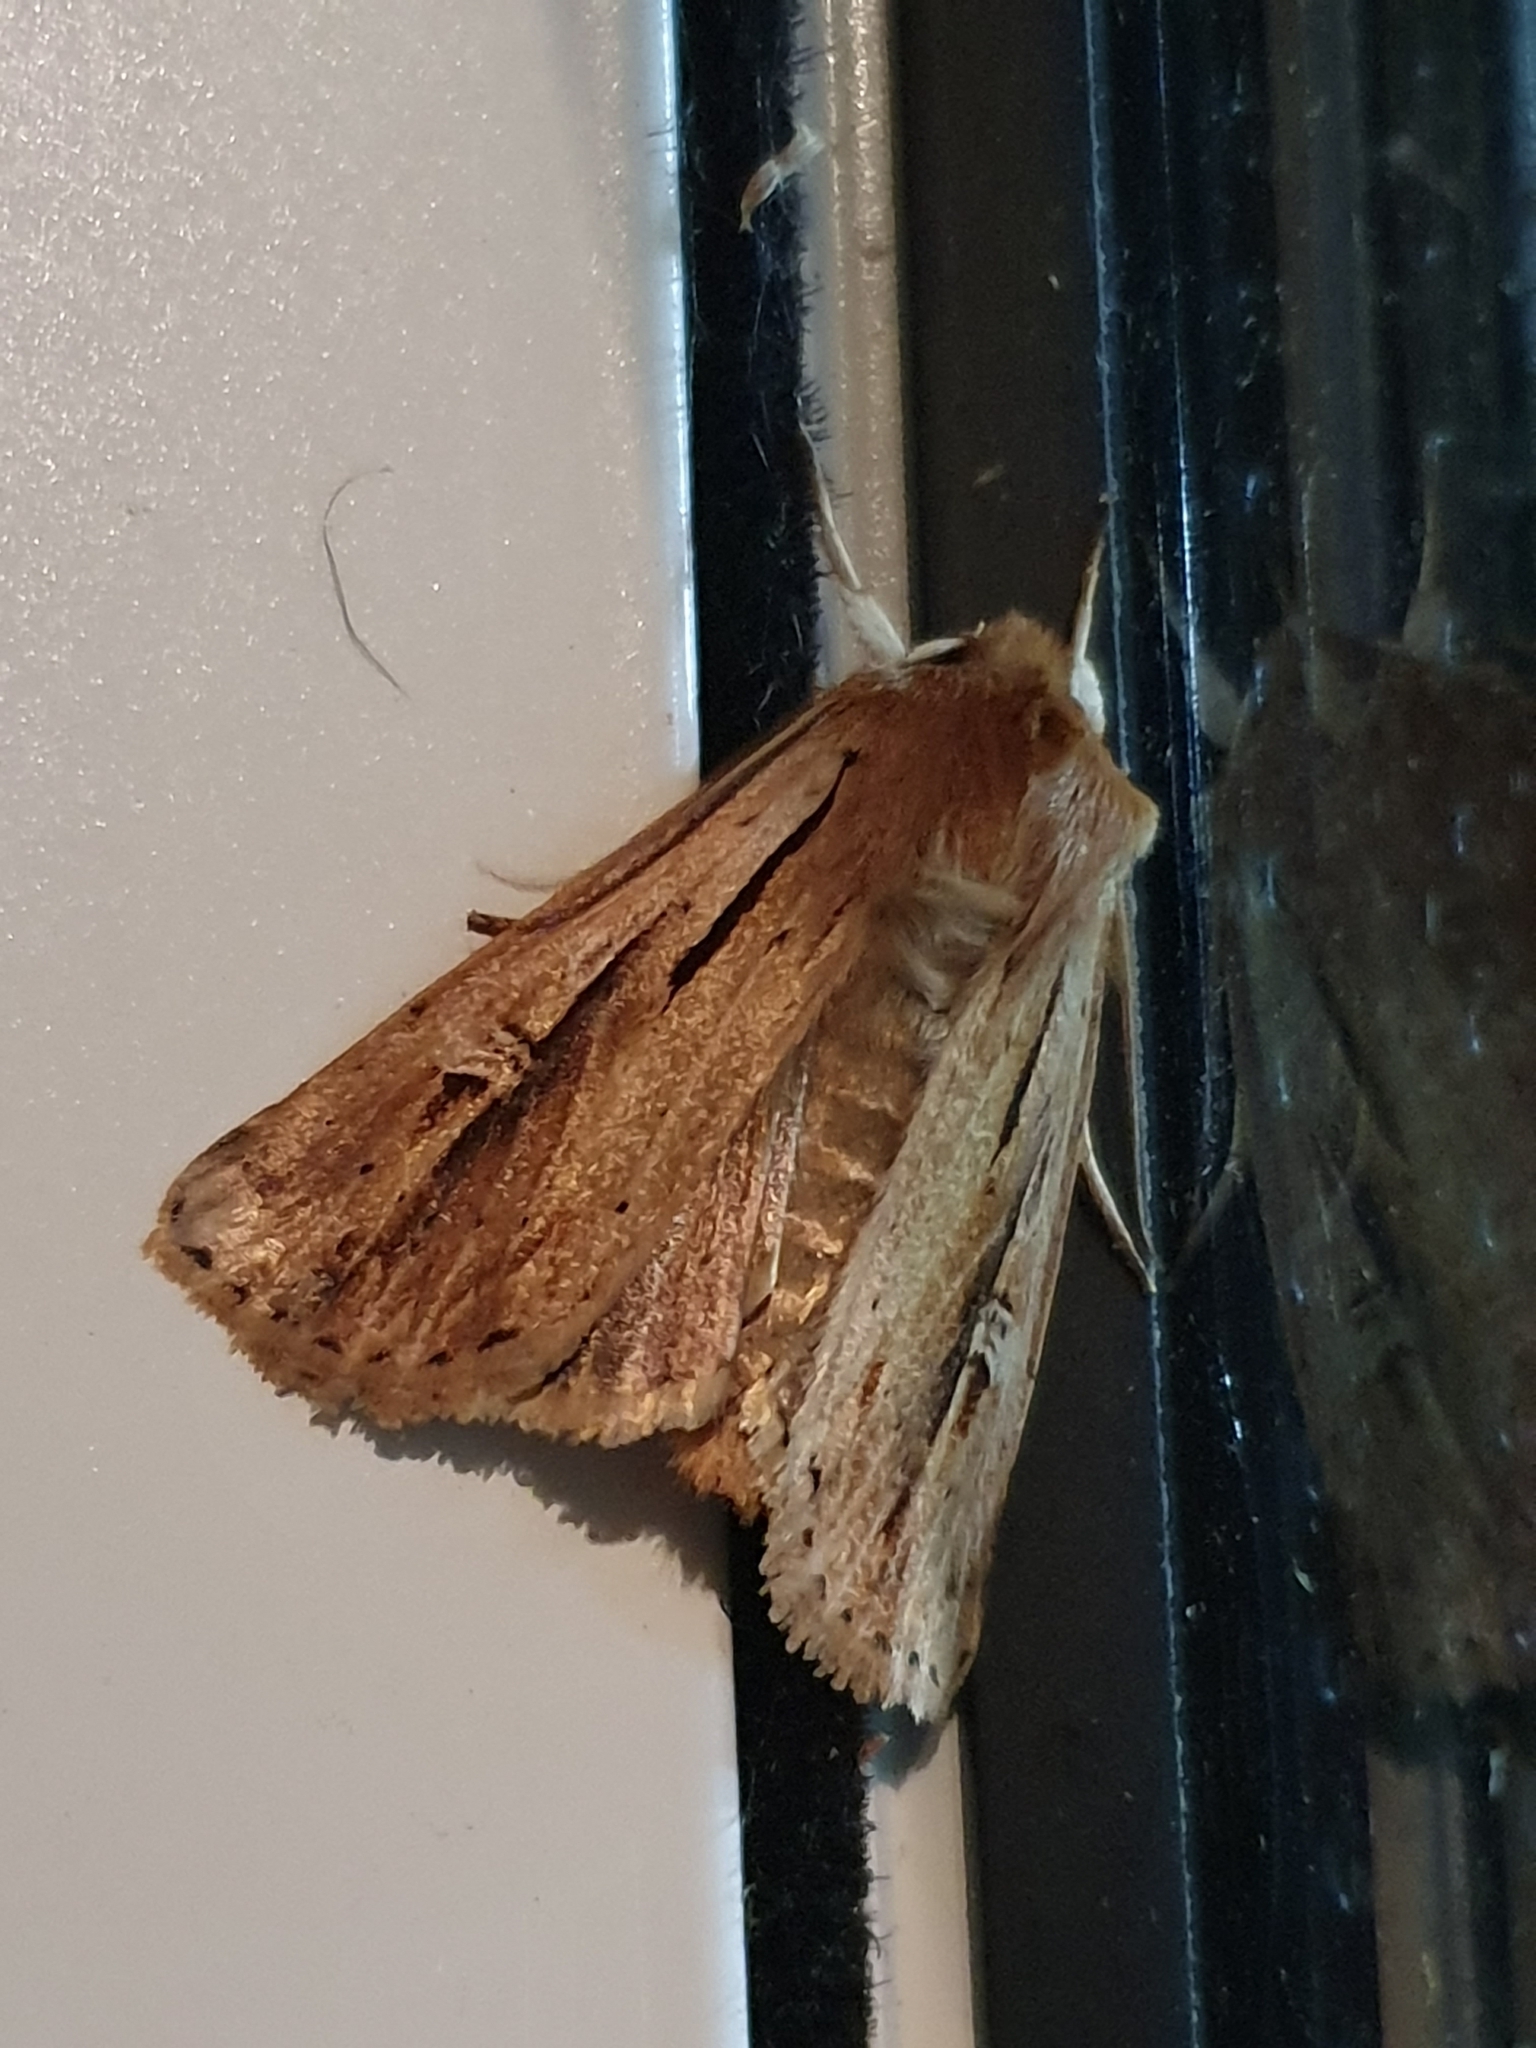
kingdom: Animalia
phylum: Arthropoda
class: Insecta
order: Lepidoptera
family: Noctuidae
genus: Ichneutica
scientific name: Ichneutica propria
